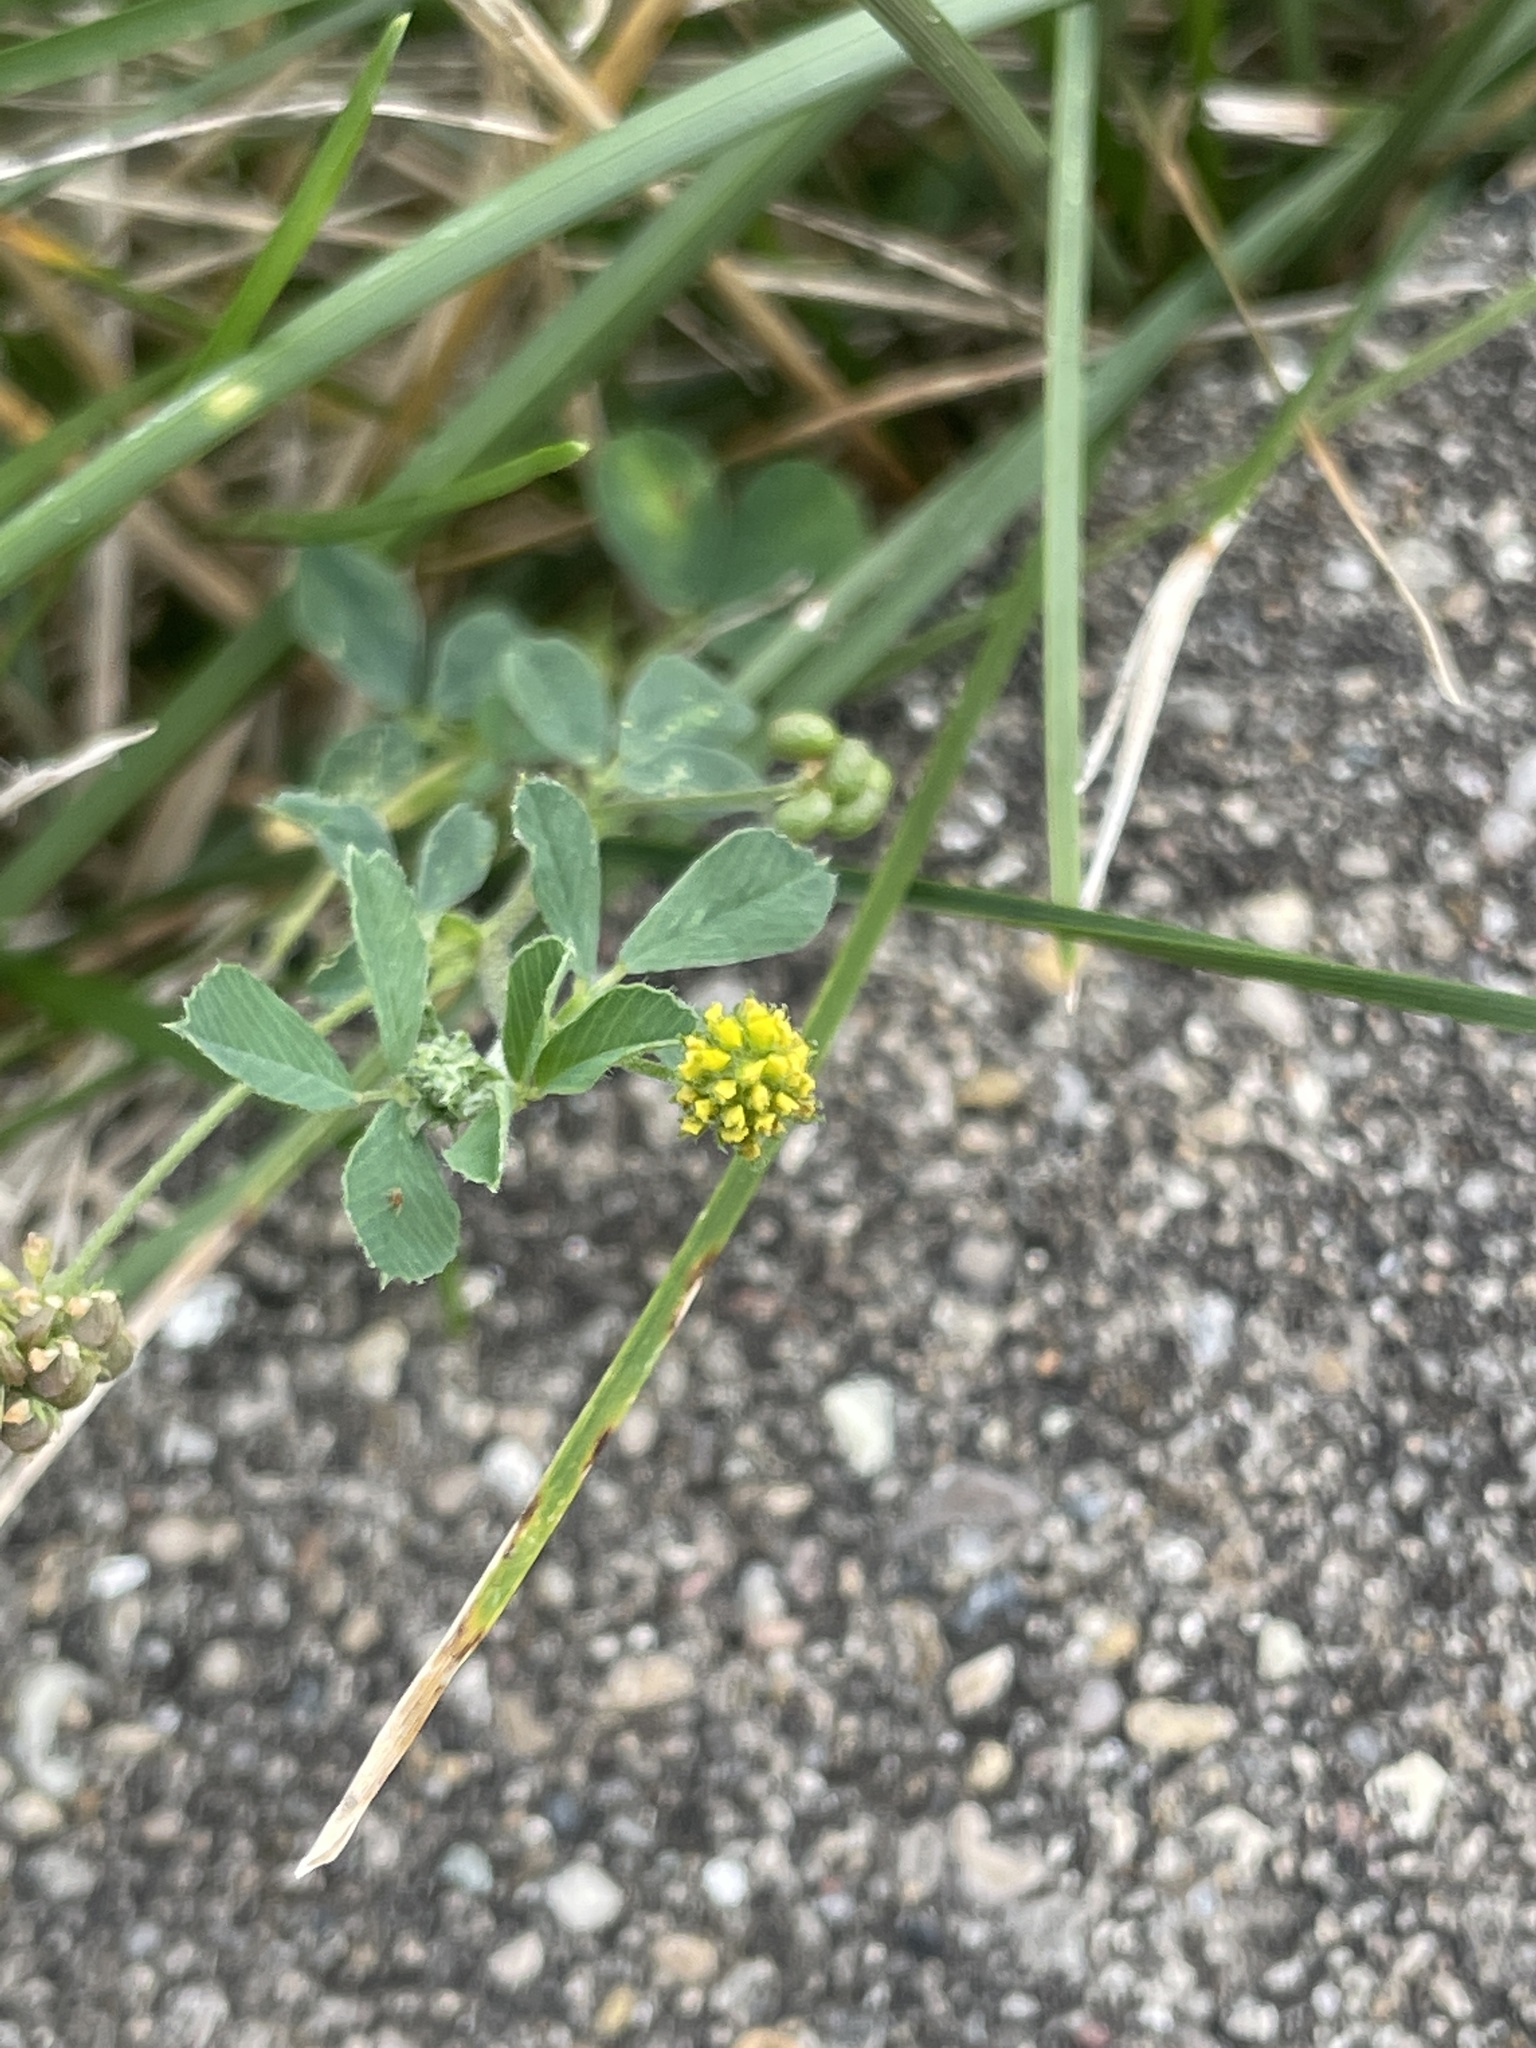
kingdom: Plantae
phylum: Tracheophyta
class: Magnoliopsida
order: Fabales
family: Fabaceae
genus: Medicago
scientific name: Medicago lupulina
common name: Black medick
